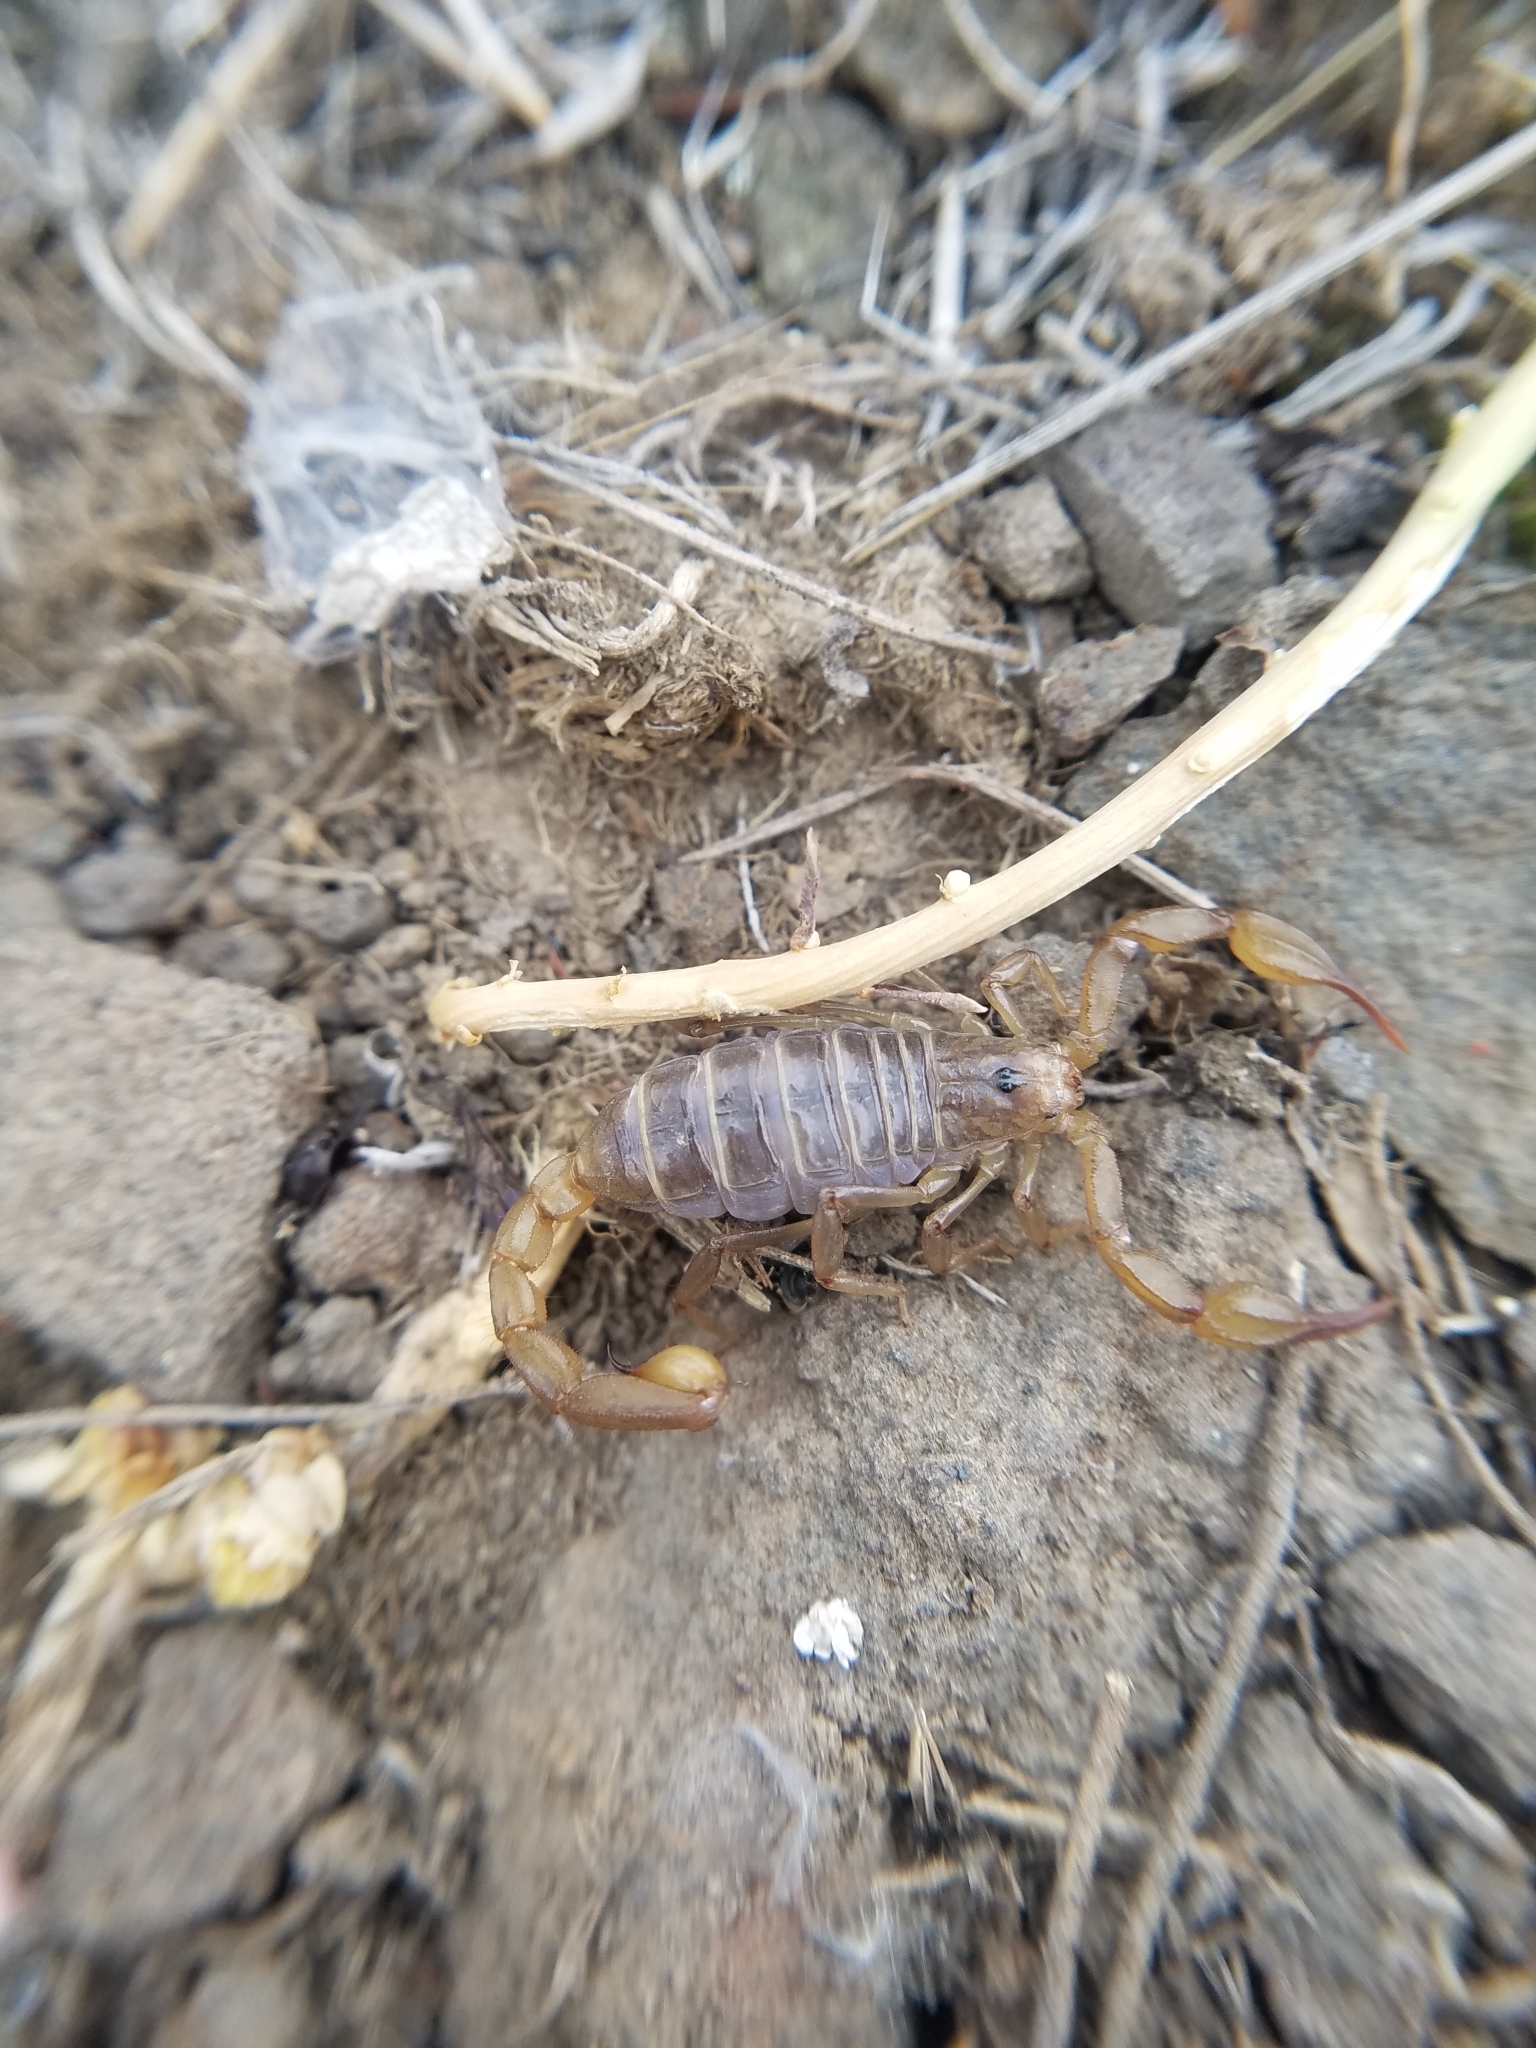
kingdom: Animalia
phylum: Arthropoda
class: Arachnida
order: Scorpiones
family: Vaejovidae
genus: Paruroctonus
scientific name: Paruroctonus boreus
